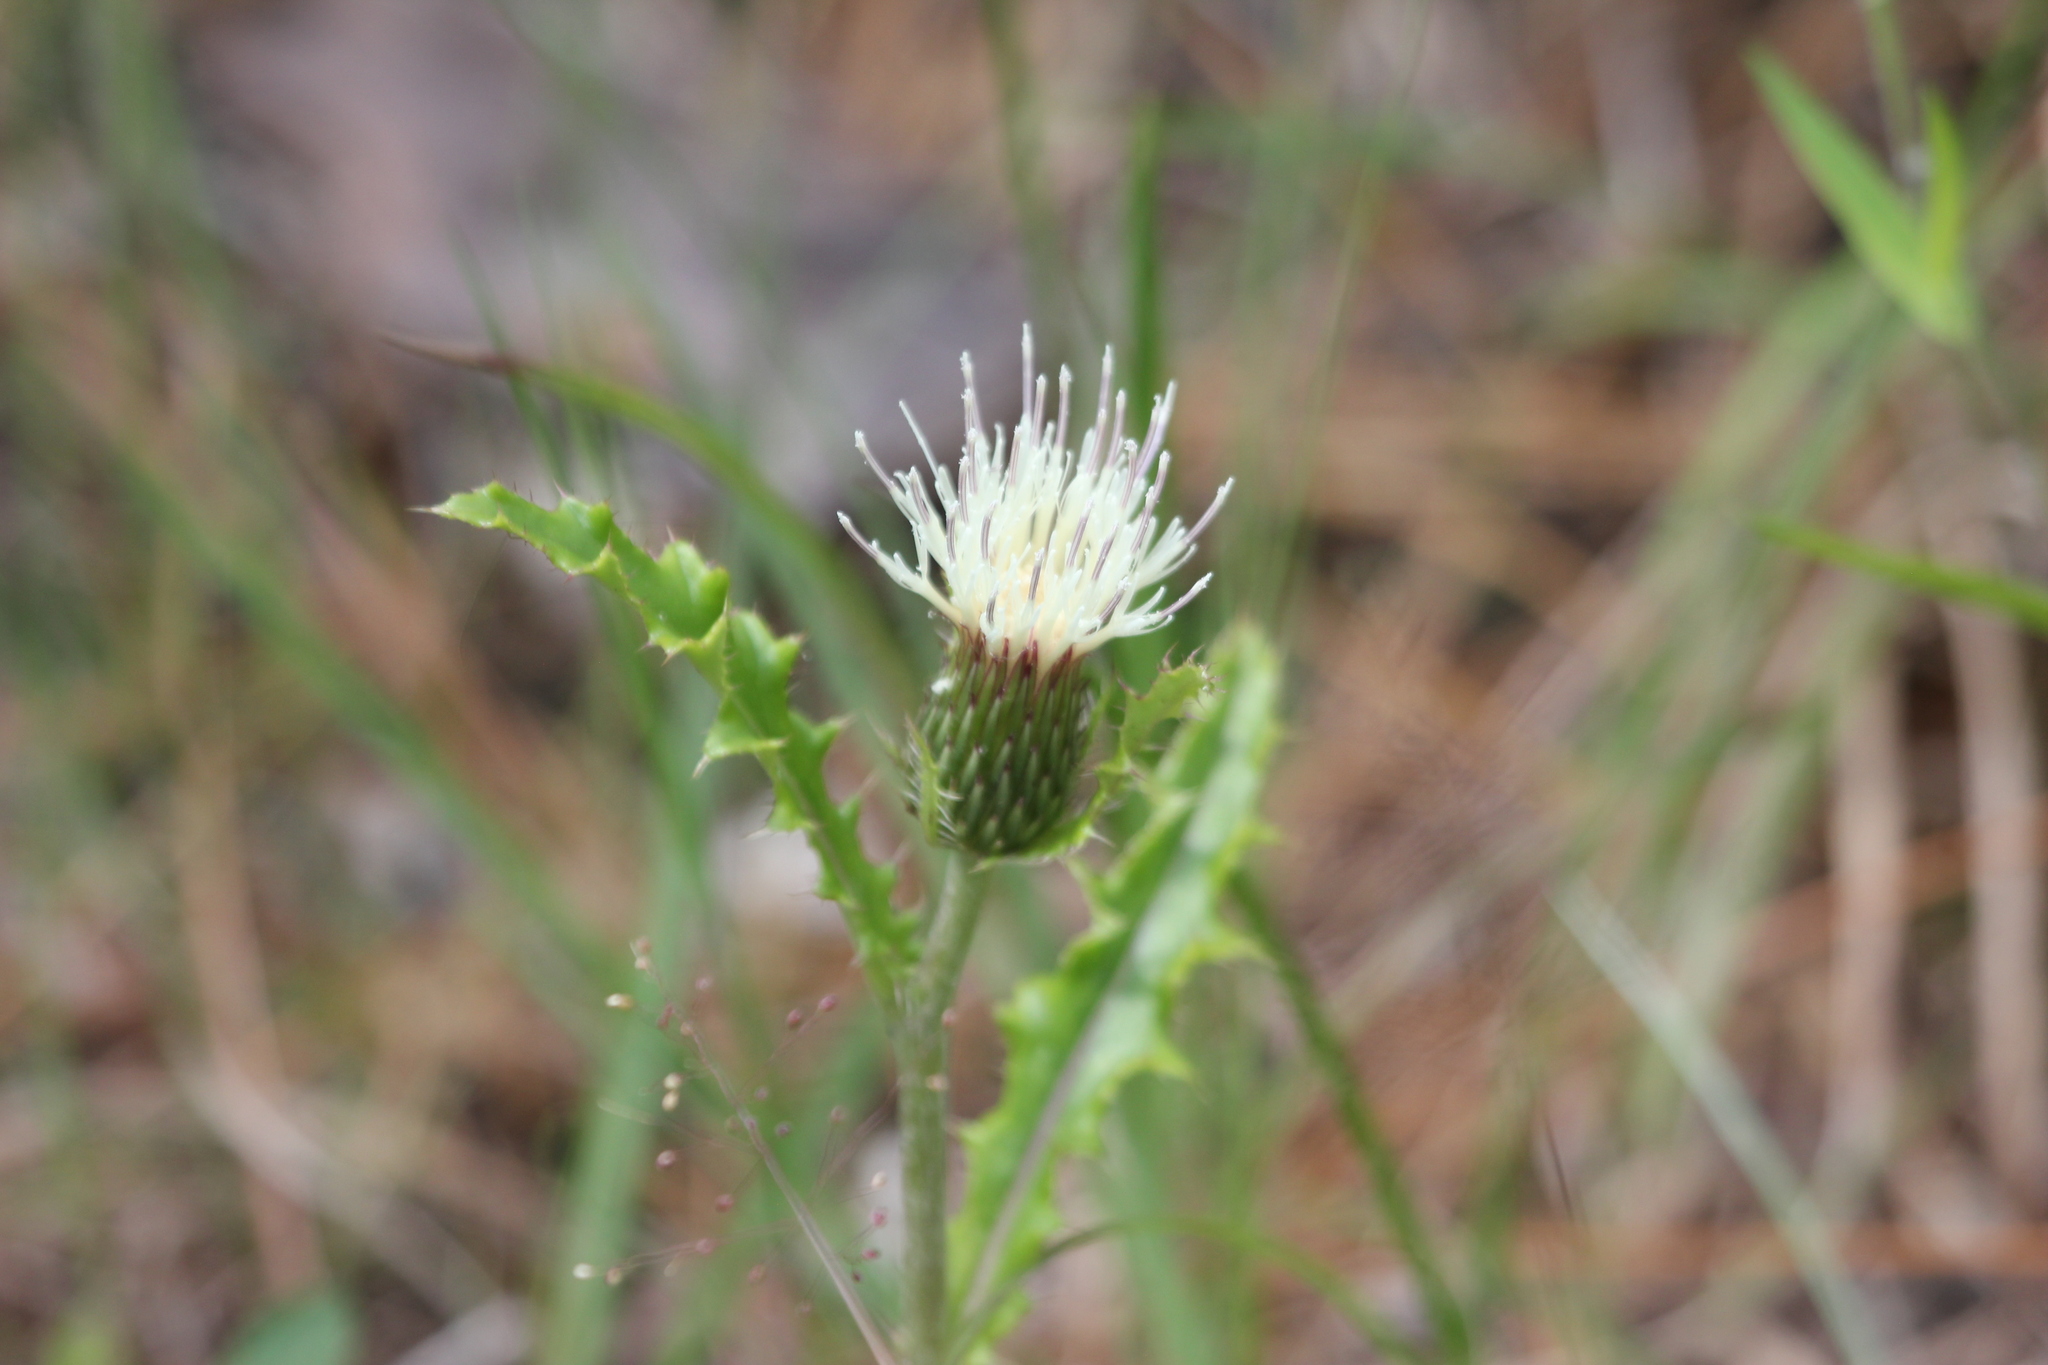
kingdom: Plantae
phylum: Tracheophyta
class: Magnoliopsida
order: Asterales
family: Asteraceae
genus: Cirsium
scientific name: Cirsium horridulum
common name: Bristly thistle
